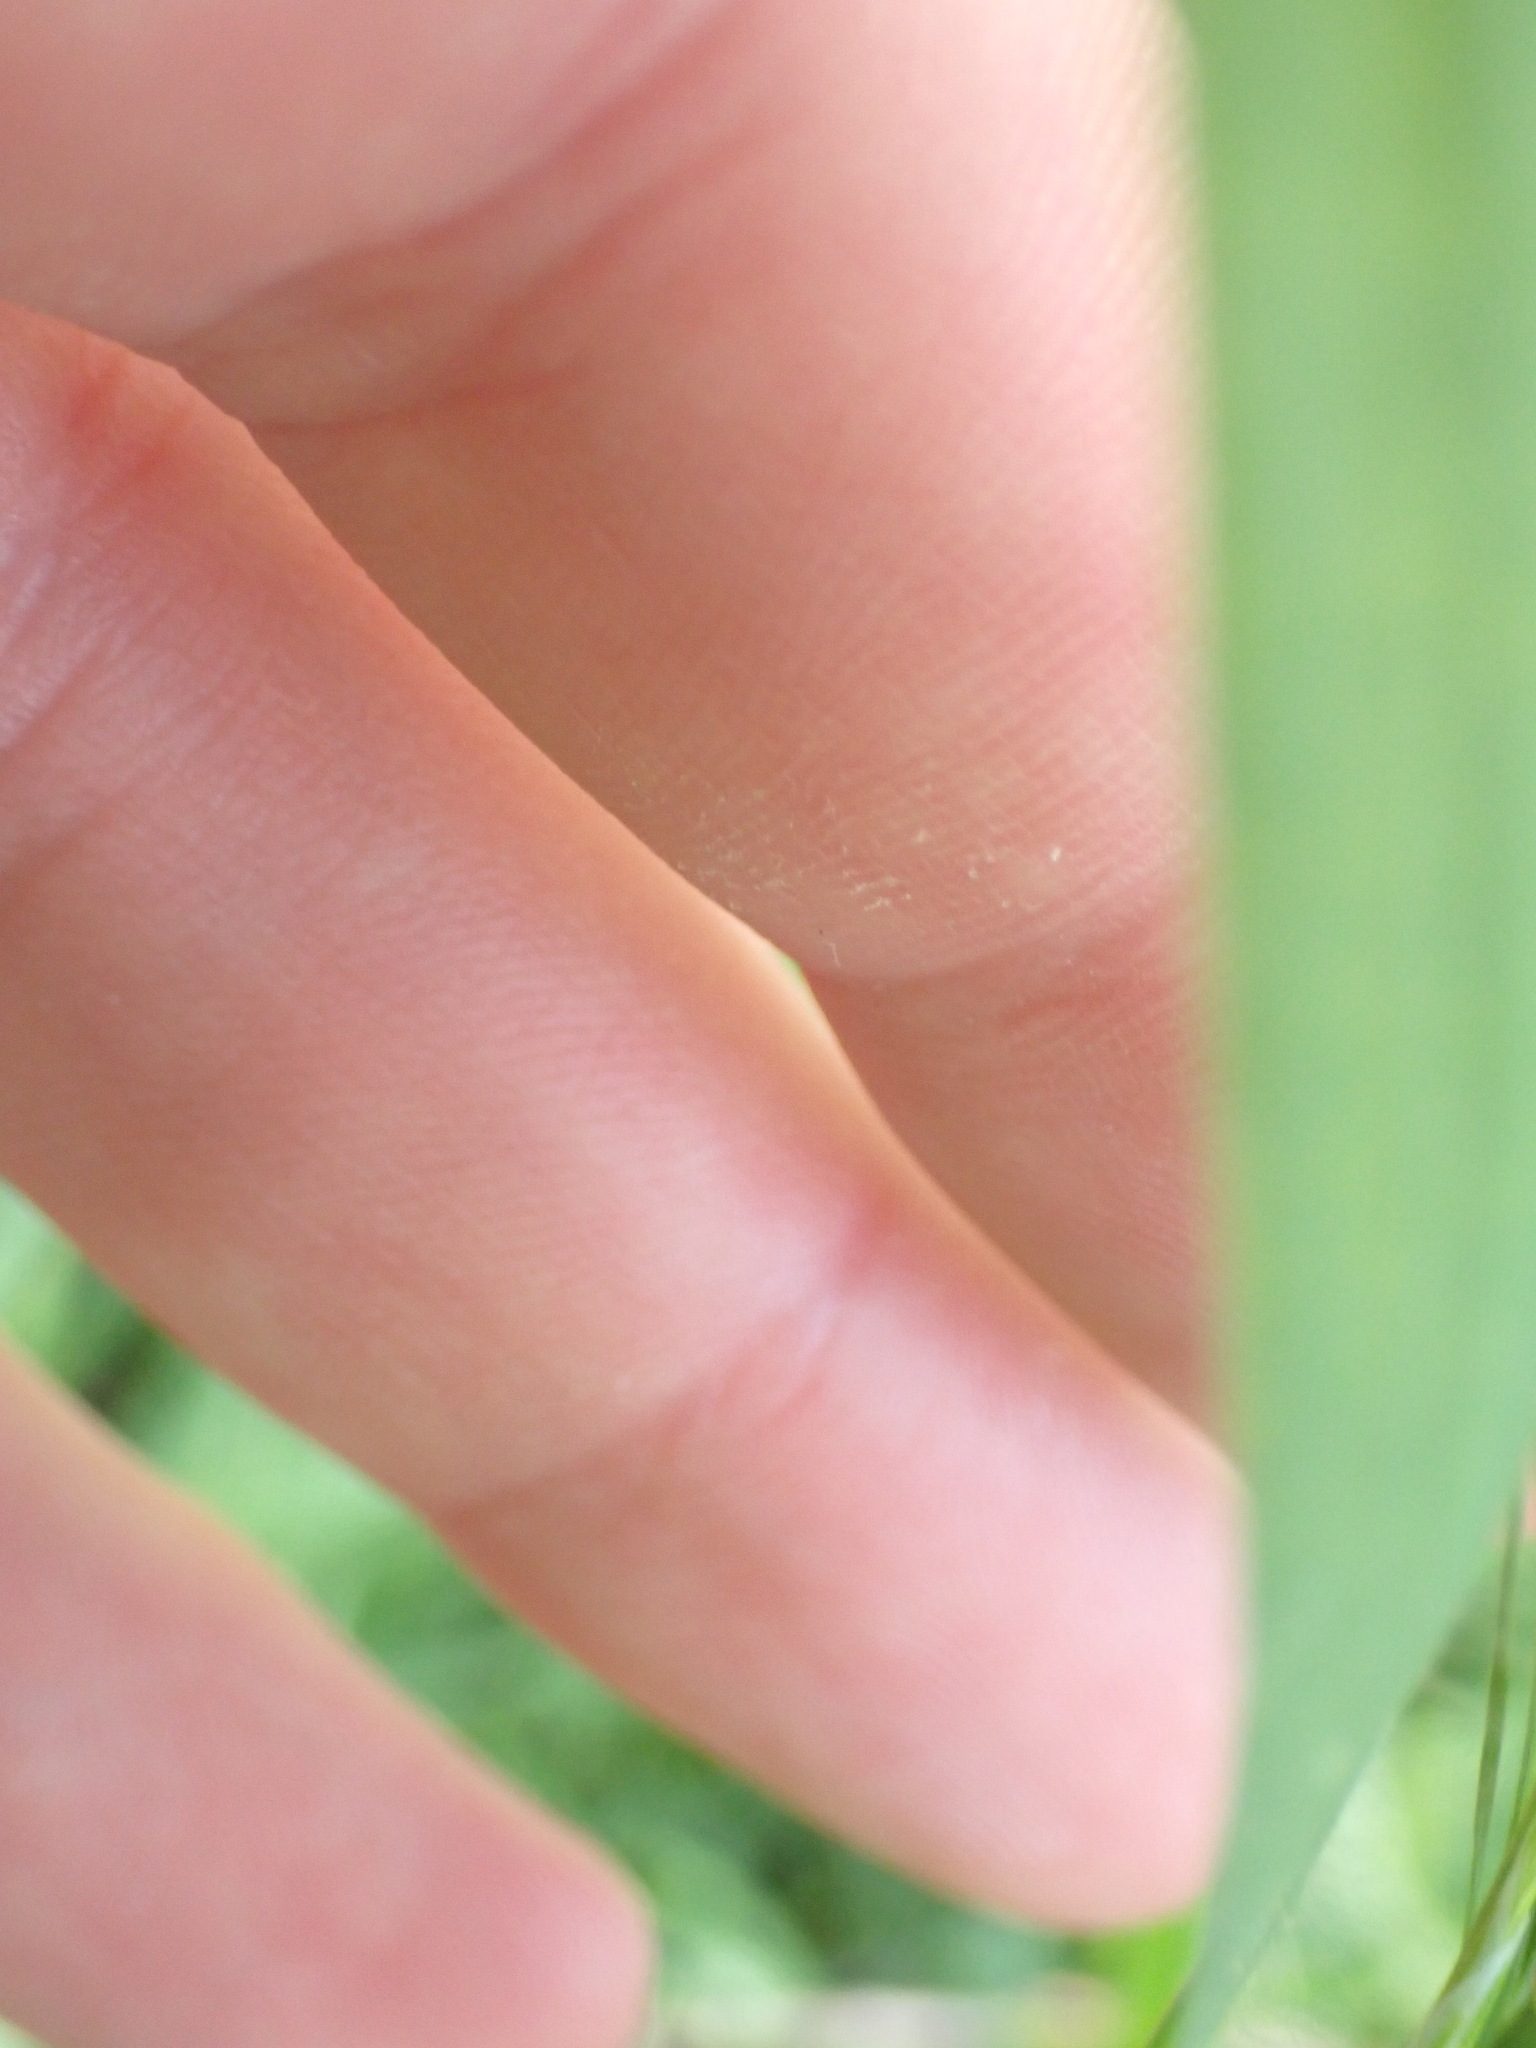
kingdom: Plantae
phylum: Tracheophyta
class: Liliopsida
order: Poales
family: Poaceae
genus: Bromus
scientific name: Bromus sterilis
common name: Poverty brome
